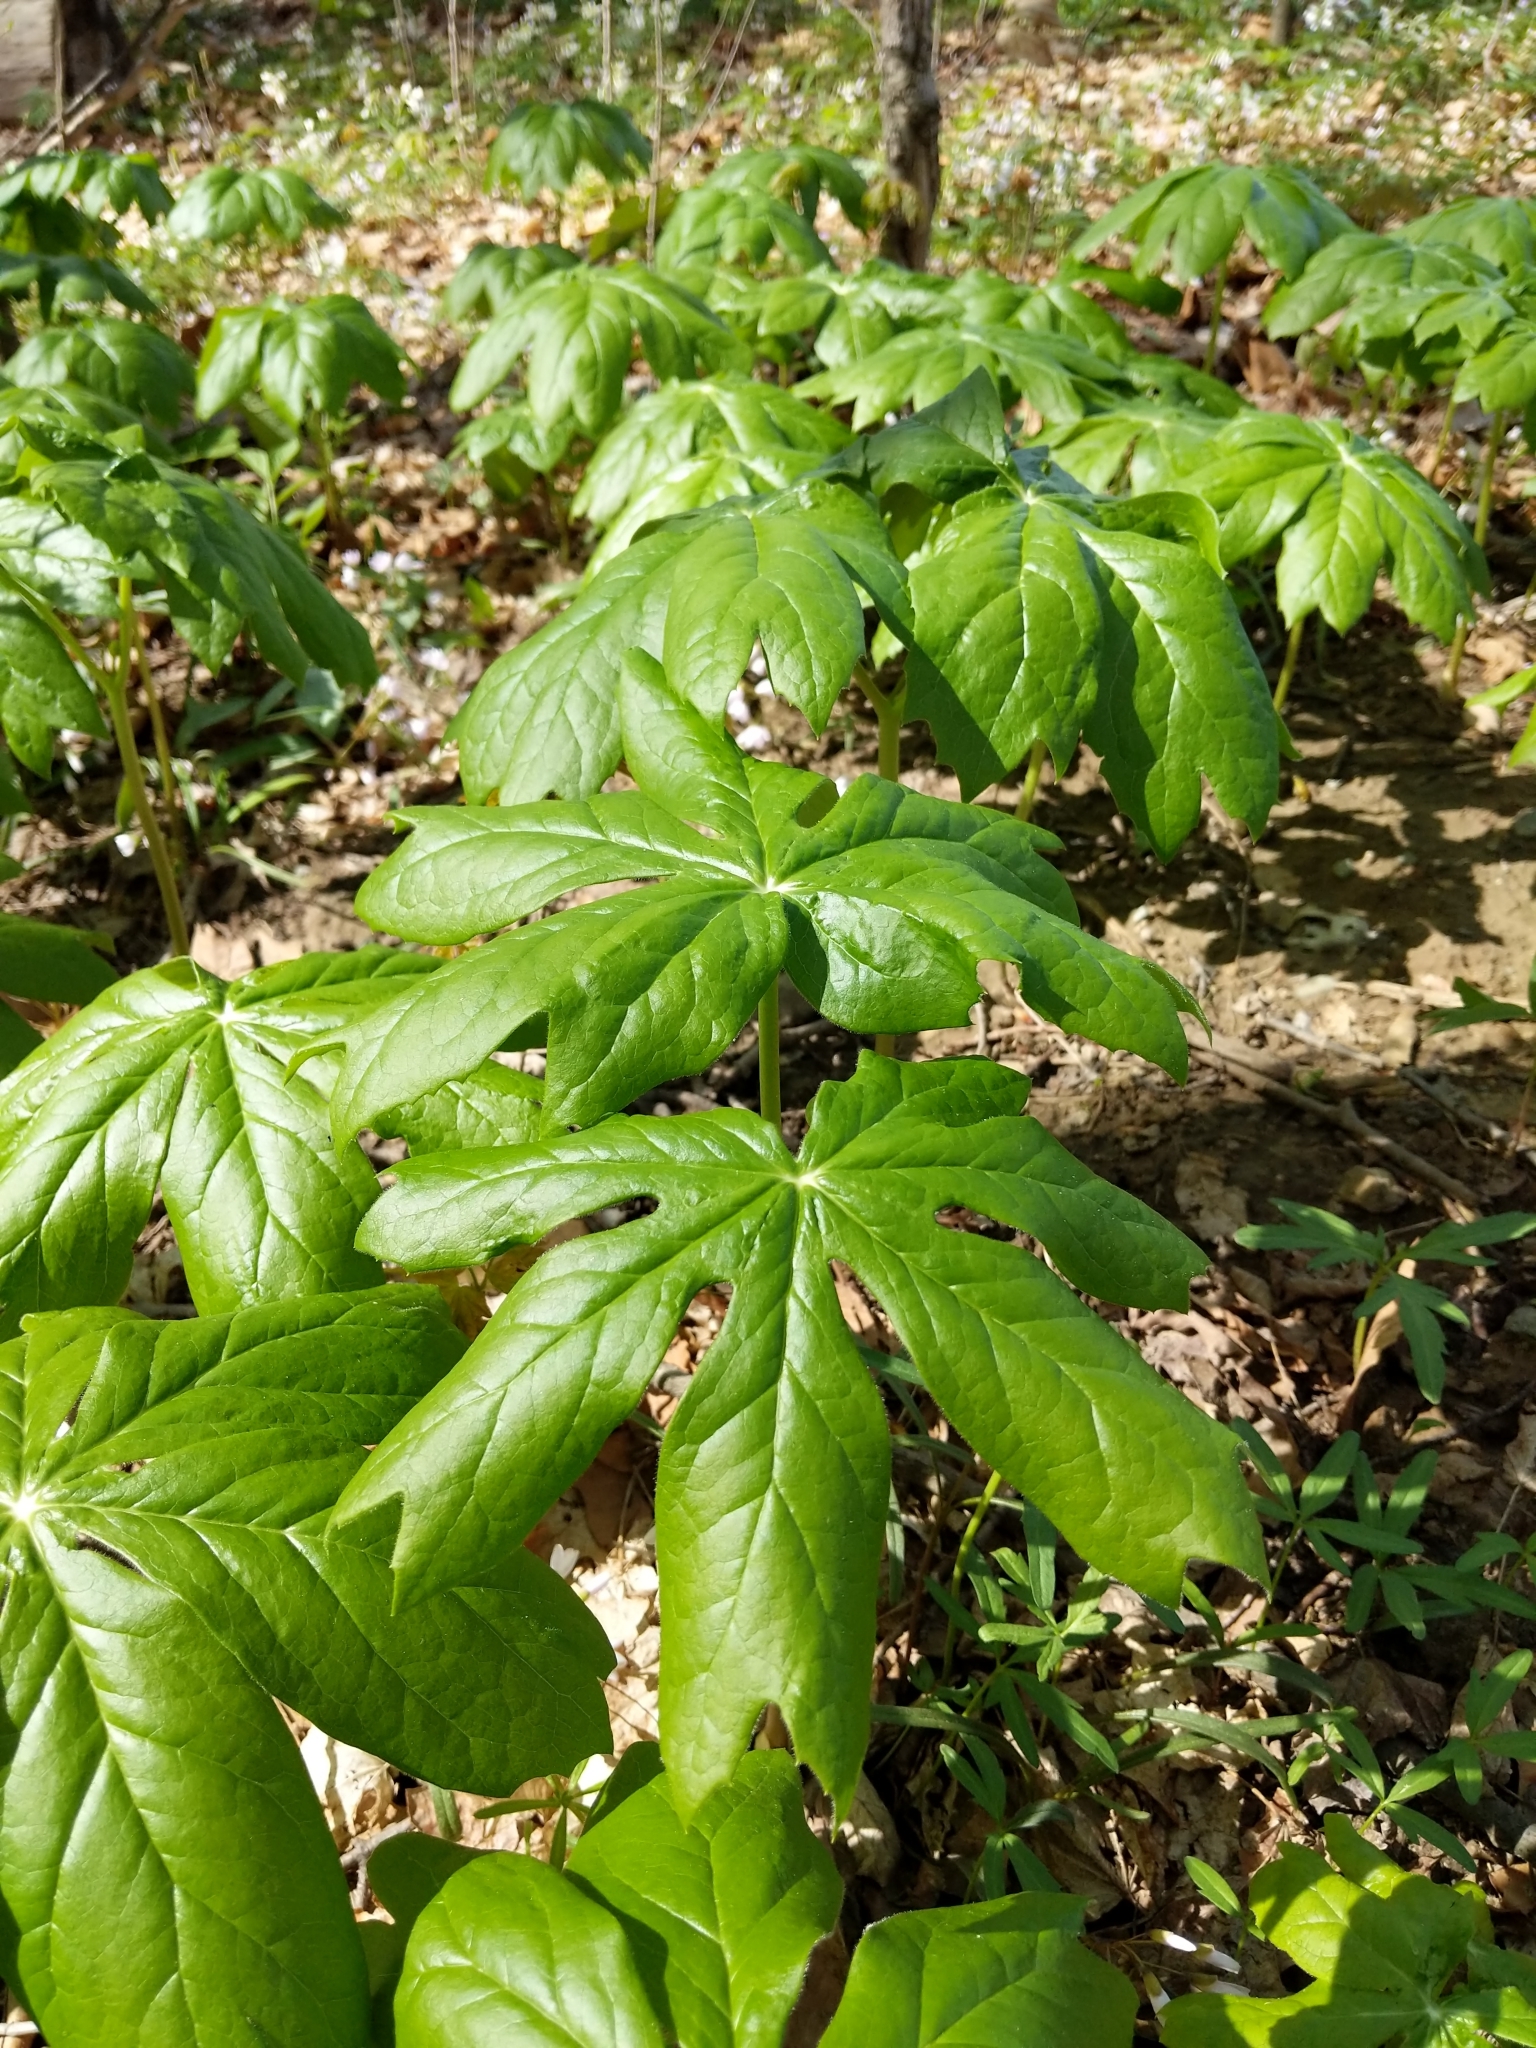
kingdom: Plantae
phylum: Tracheophyta
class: Magnoliopsida
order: Ranunculales
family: Berberidaceae
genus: Podophyllum
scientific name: Podophyllum peltatum
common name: Wild mandrake
